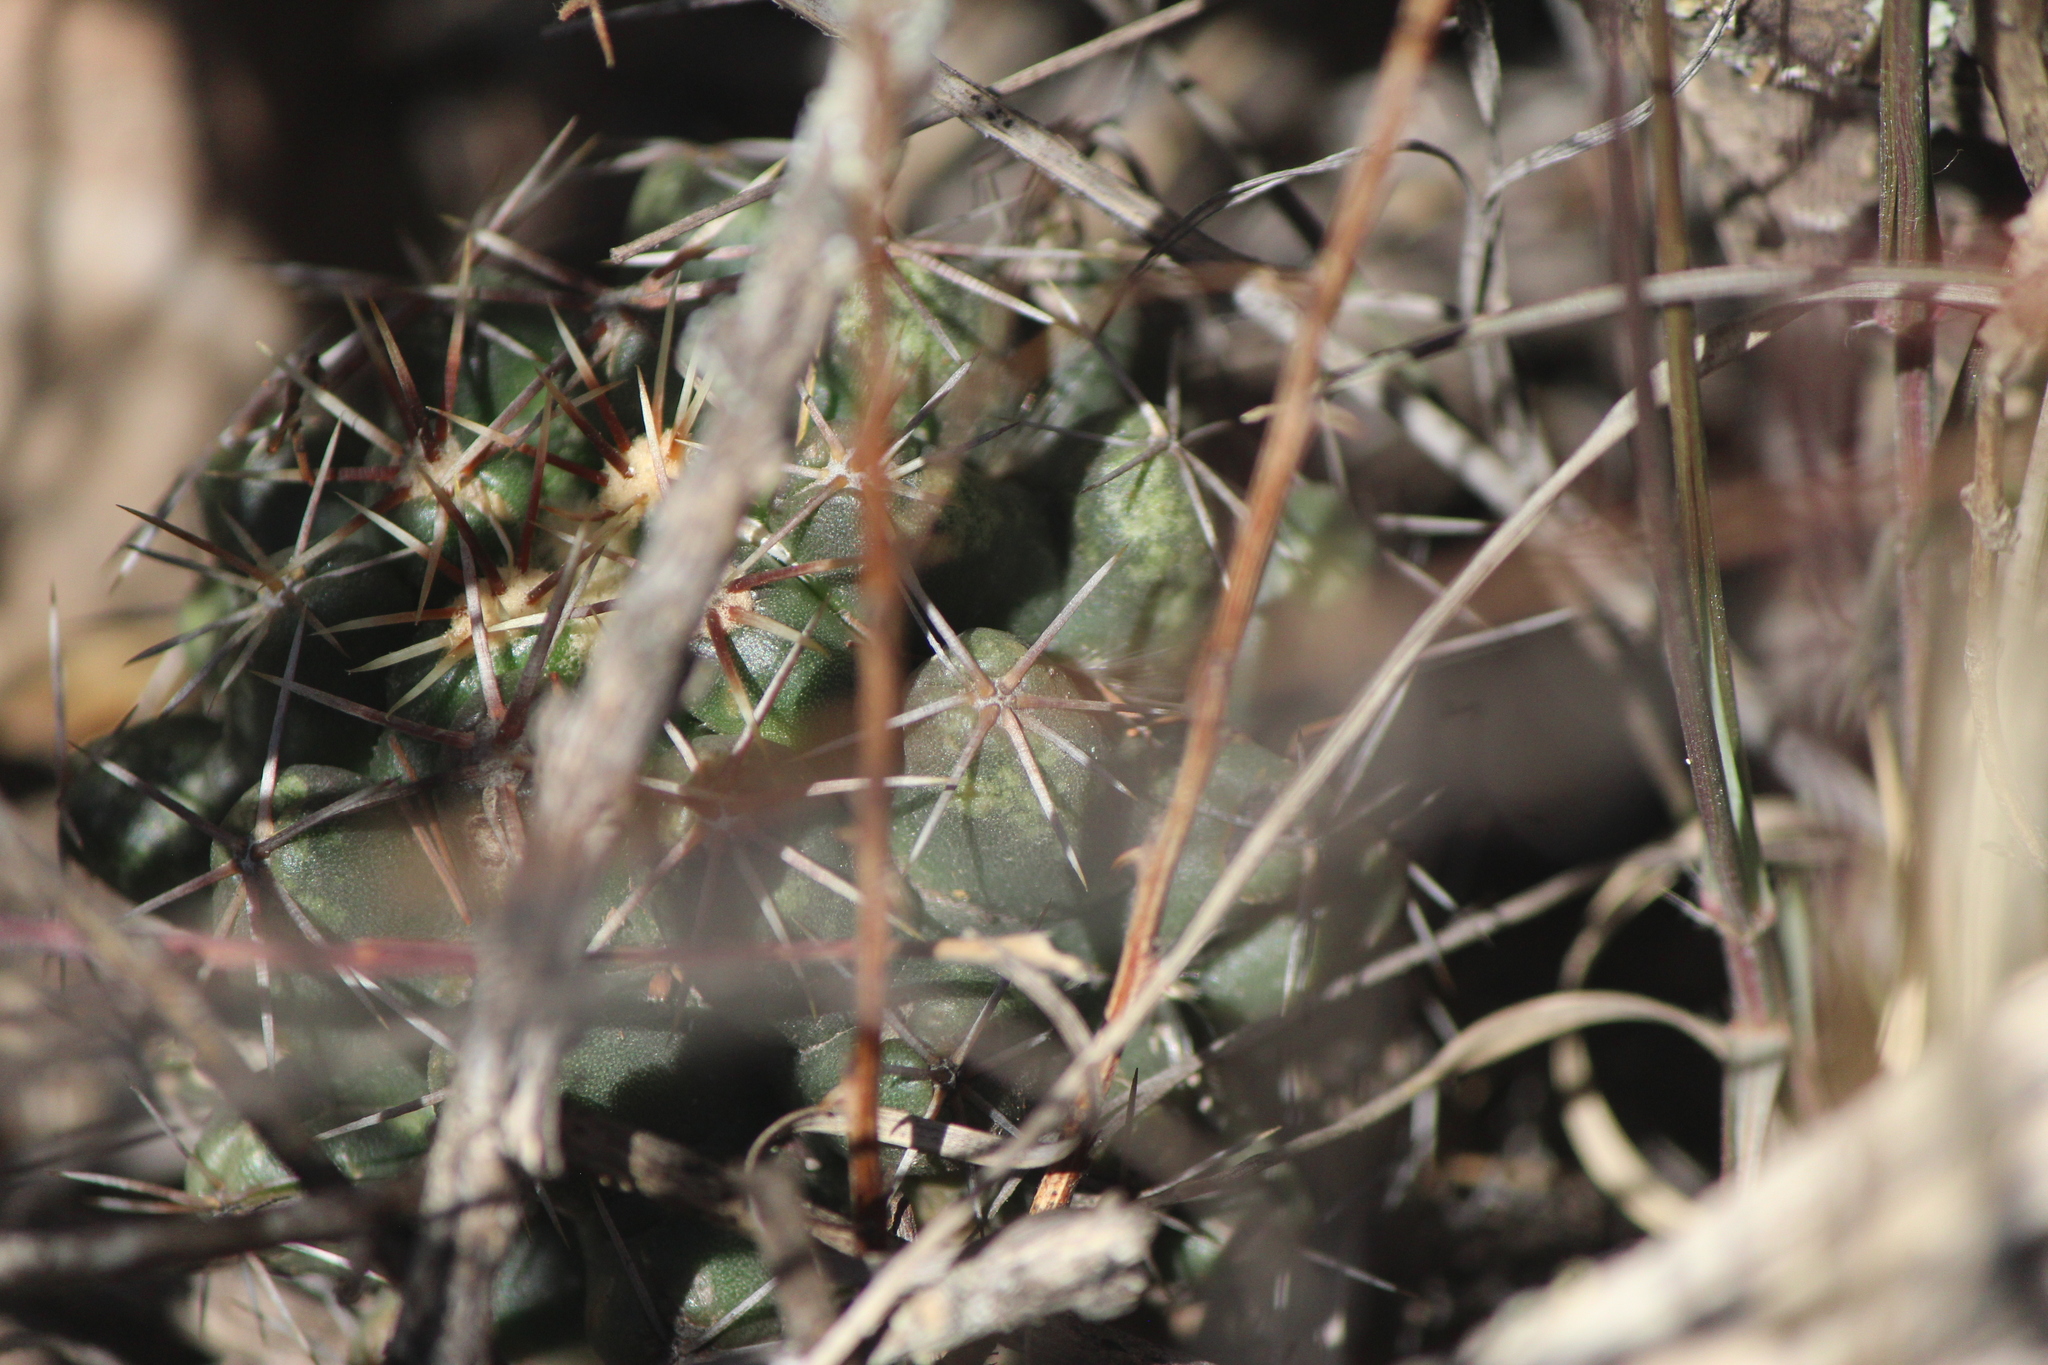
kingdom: Plantae
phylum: Tracheophyta
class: Magnoliopsida
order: Caryophyllales
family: Cactaceae
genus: Thelocactus
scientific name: Thelocactus leucacanthus
